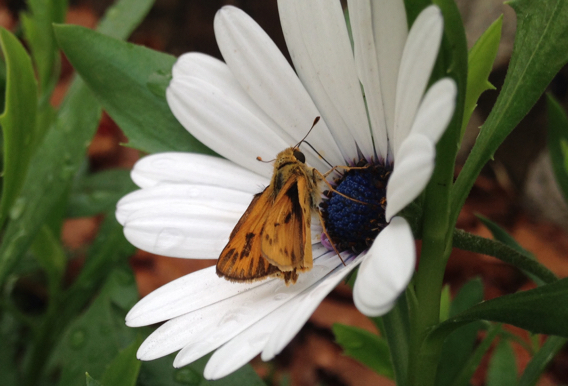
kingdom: Animalia
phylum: Arthropoda
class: Insecta
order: Lepidoptera
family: Hesperiidae
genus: Hylephila
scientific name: Hylephila phyleus
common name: Fiery skipper
